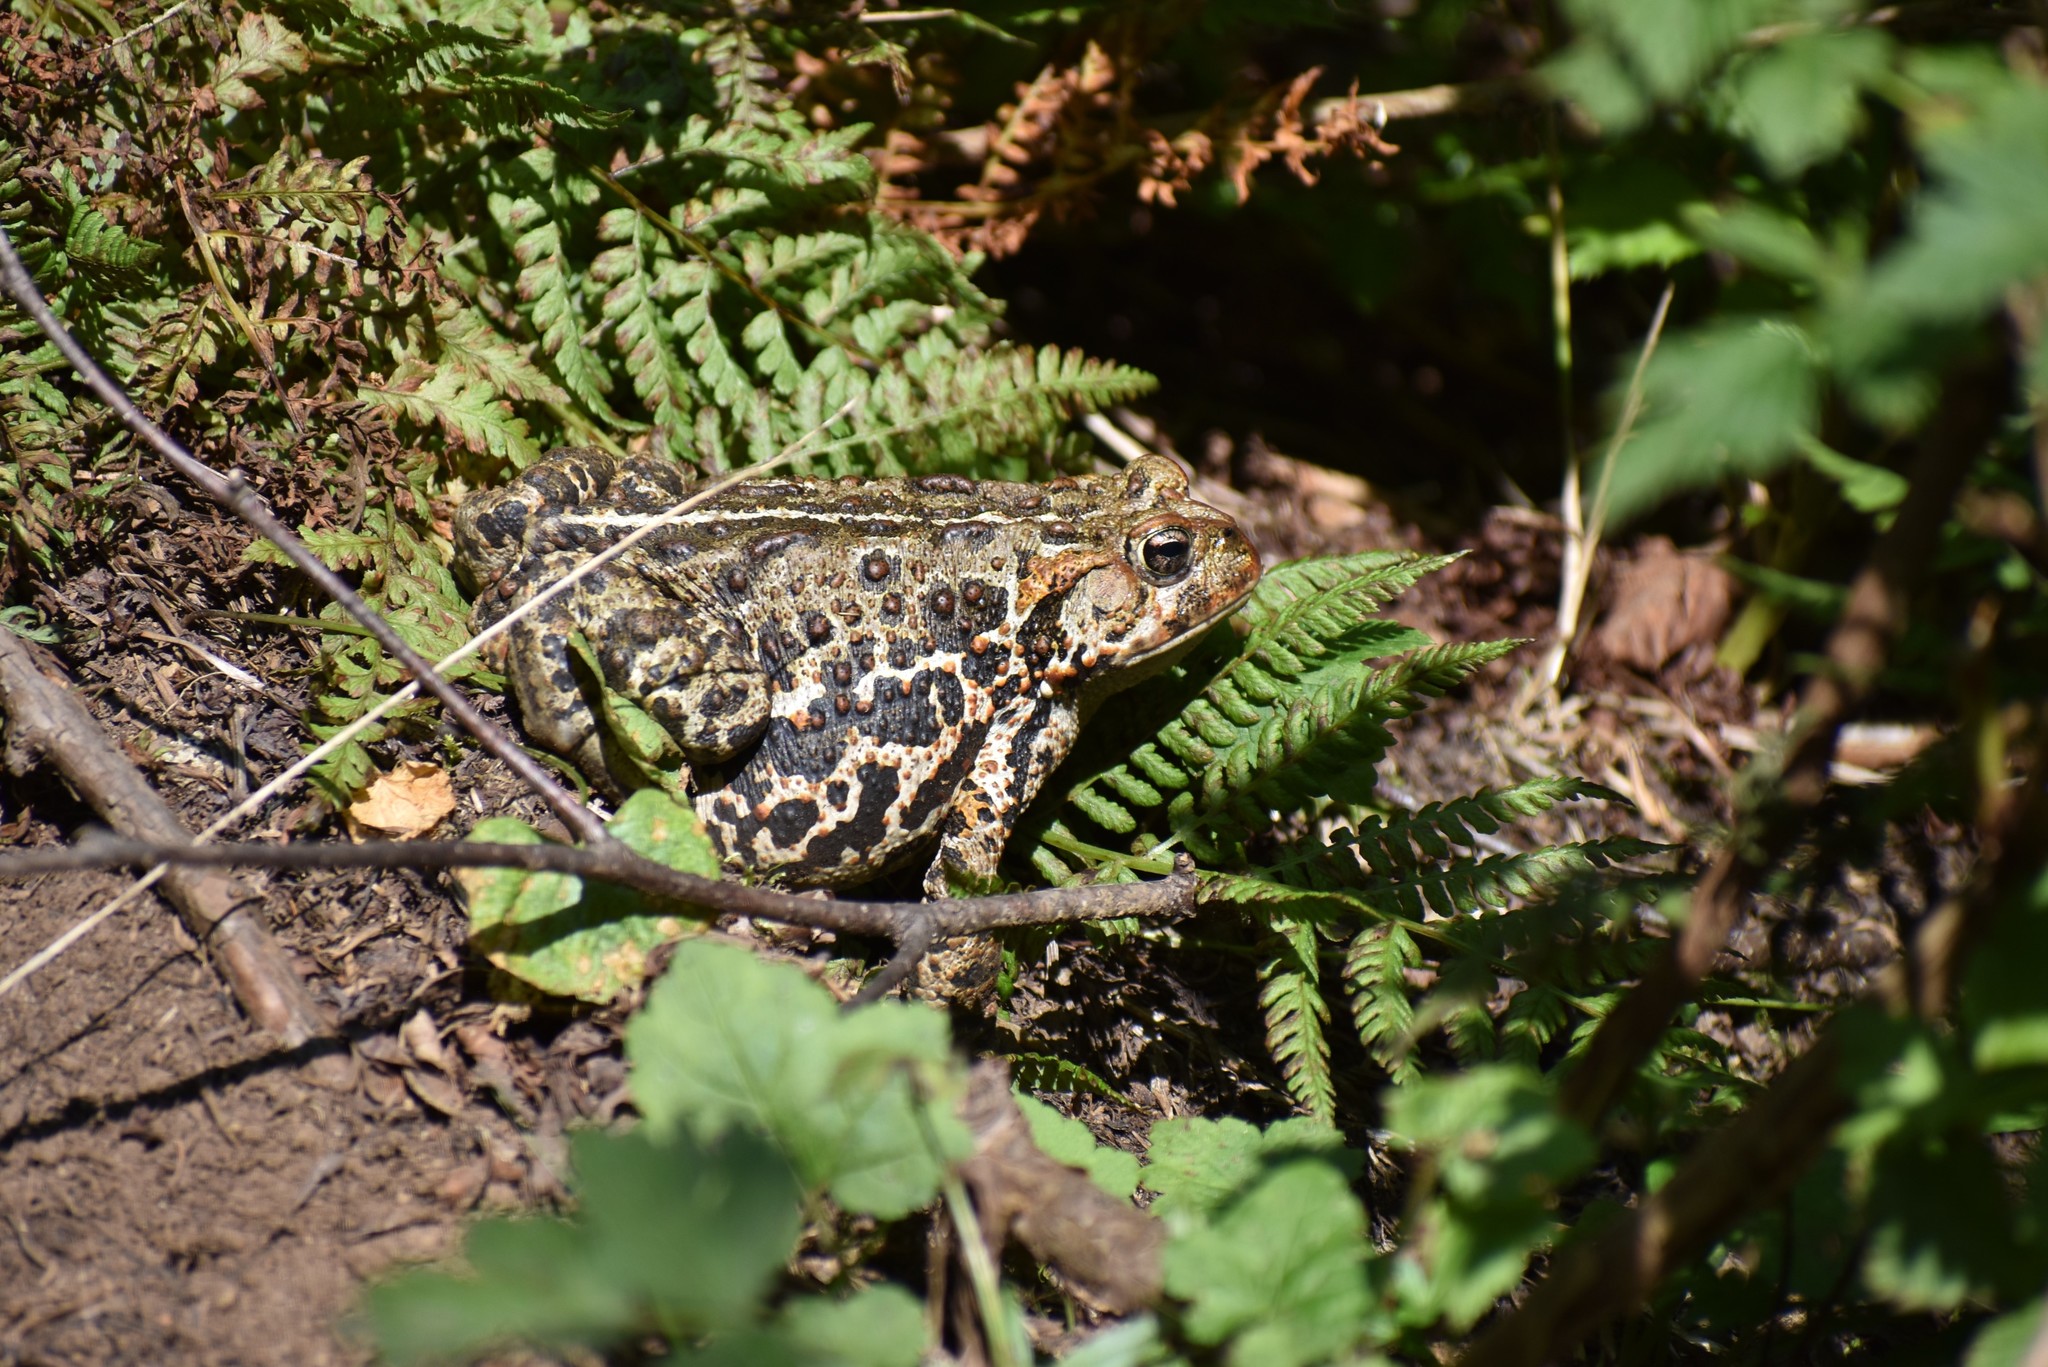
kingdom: Animalia
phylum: Chordata
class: Amphibia
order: Anura
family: Bufonidae
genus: Anaxyrus
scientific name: Anaxyrus boreas
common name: Western toad
